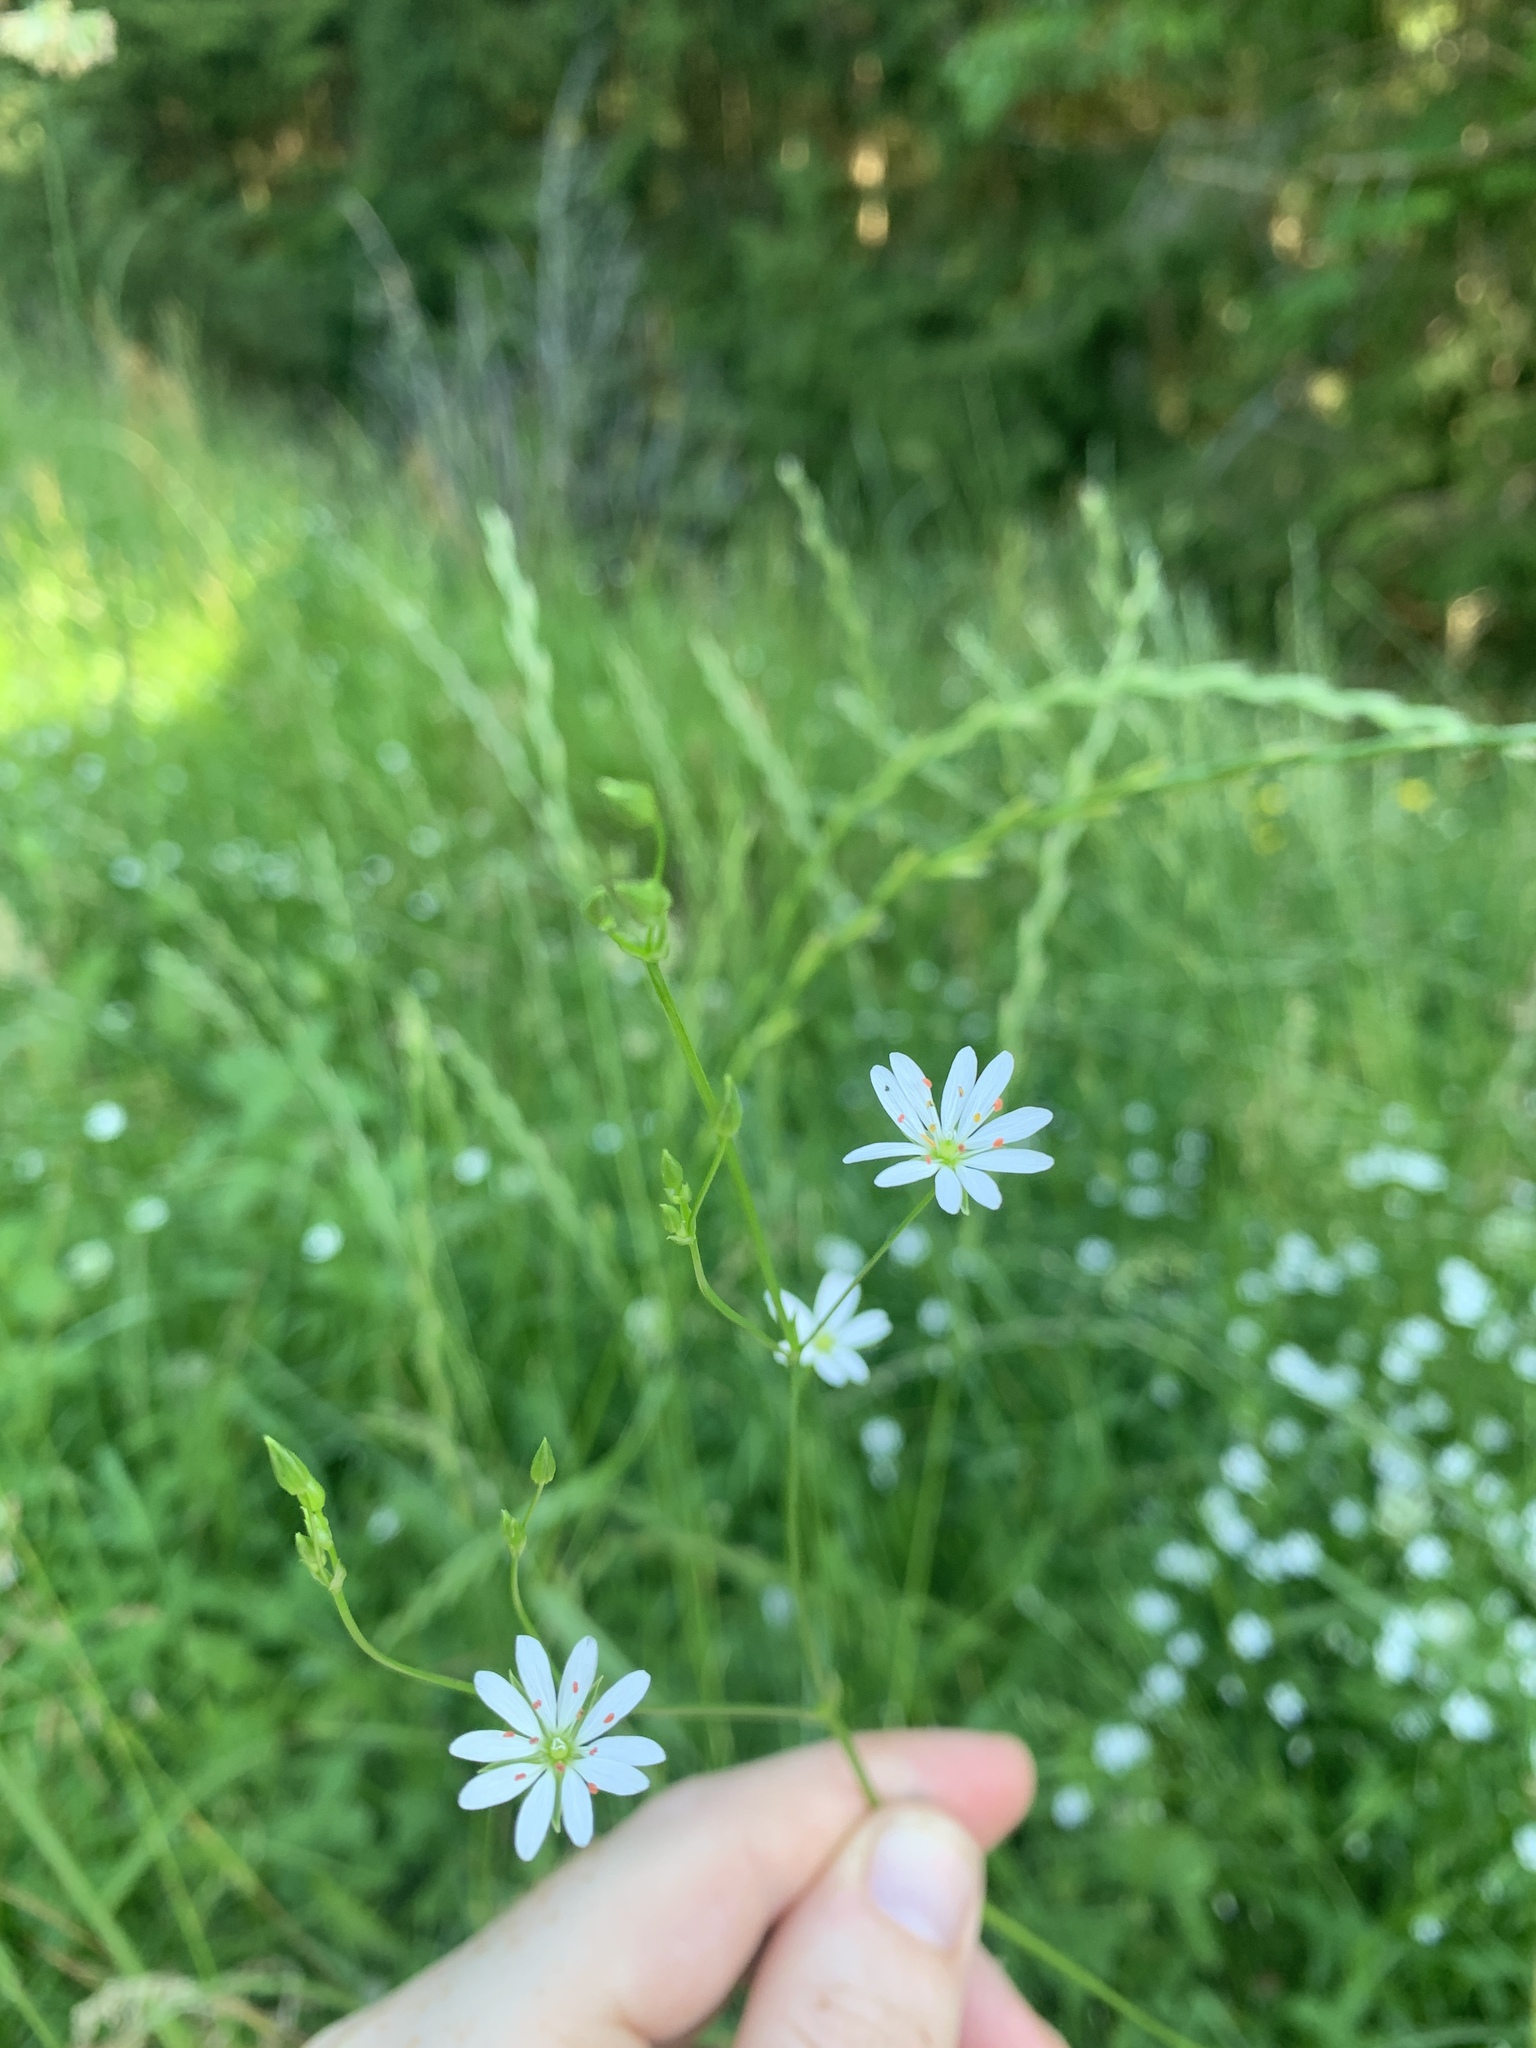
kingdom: Plantae
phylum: Tracheophyta
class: Magnoliopsida
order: Caryophyllales
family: Caryophyllaceae
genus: Stellaria
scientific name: Stellaria graminea
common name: Grass-like starwort
